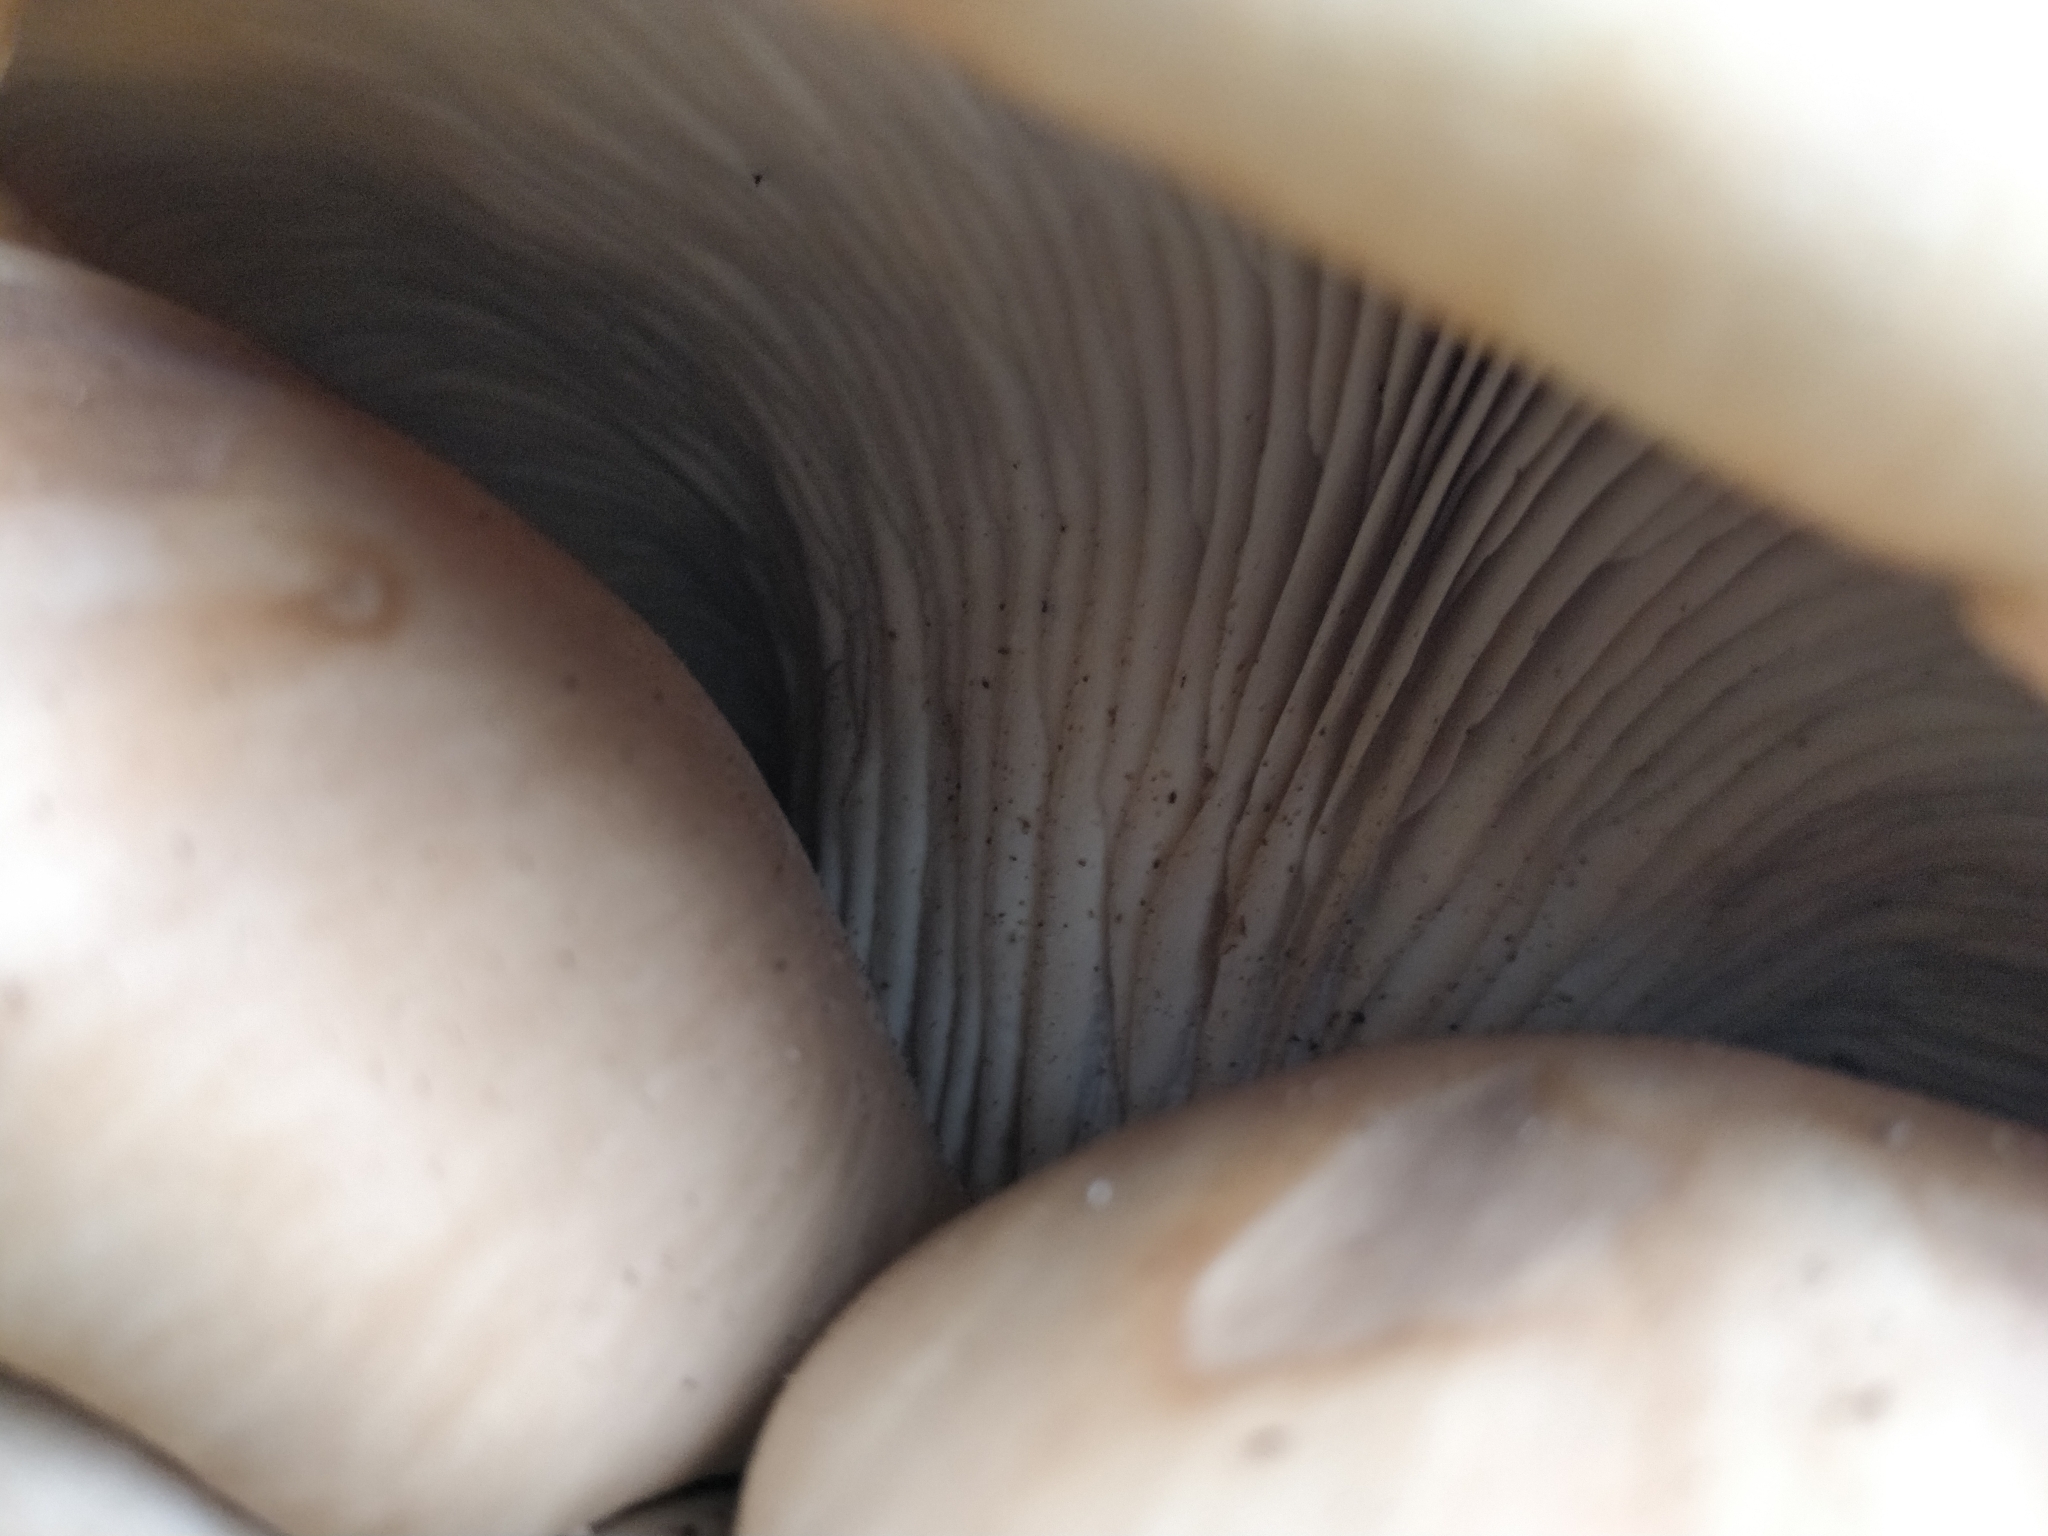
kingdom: Fungi
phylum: Basidiomycota
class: Agaricomycetes
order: Agaricales
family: Pleurotaceae
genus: Pleurotus
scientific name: Pleurotus ostreatus
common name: Oyster mushroom
